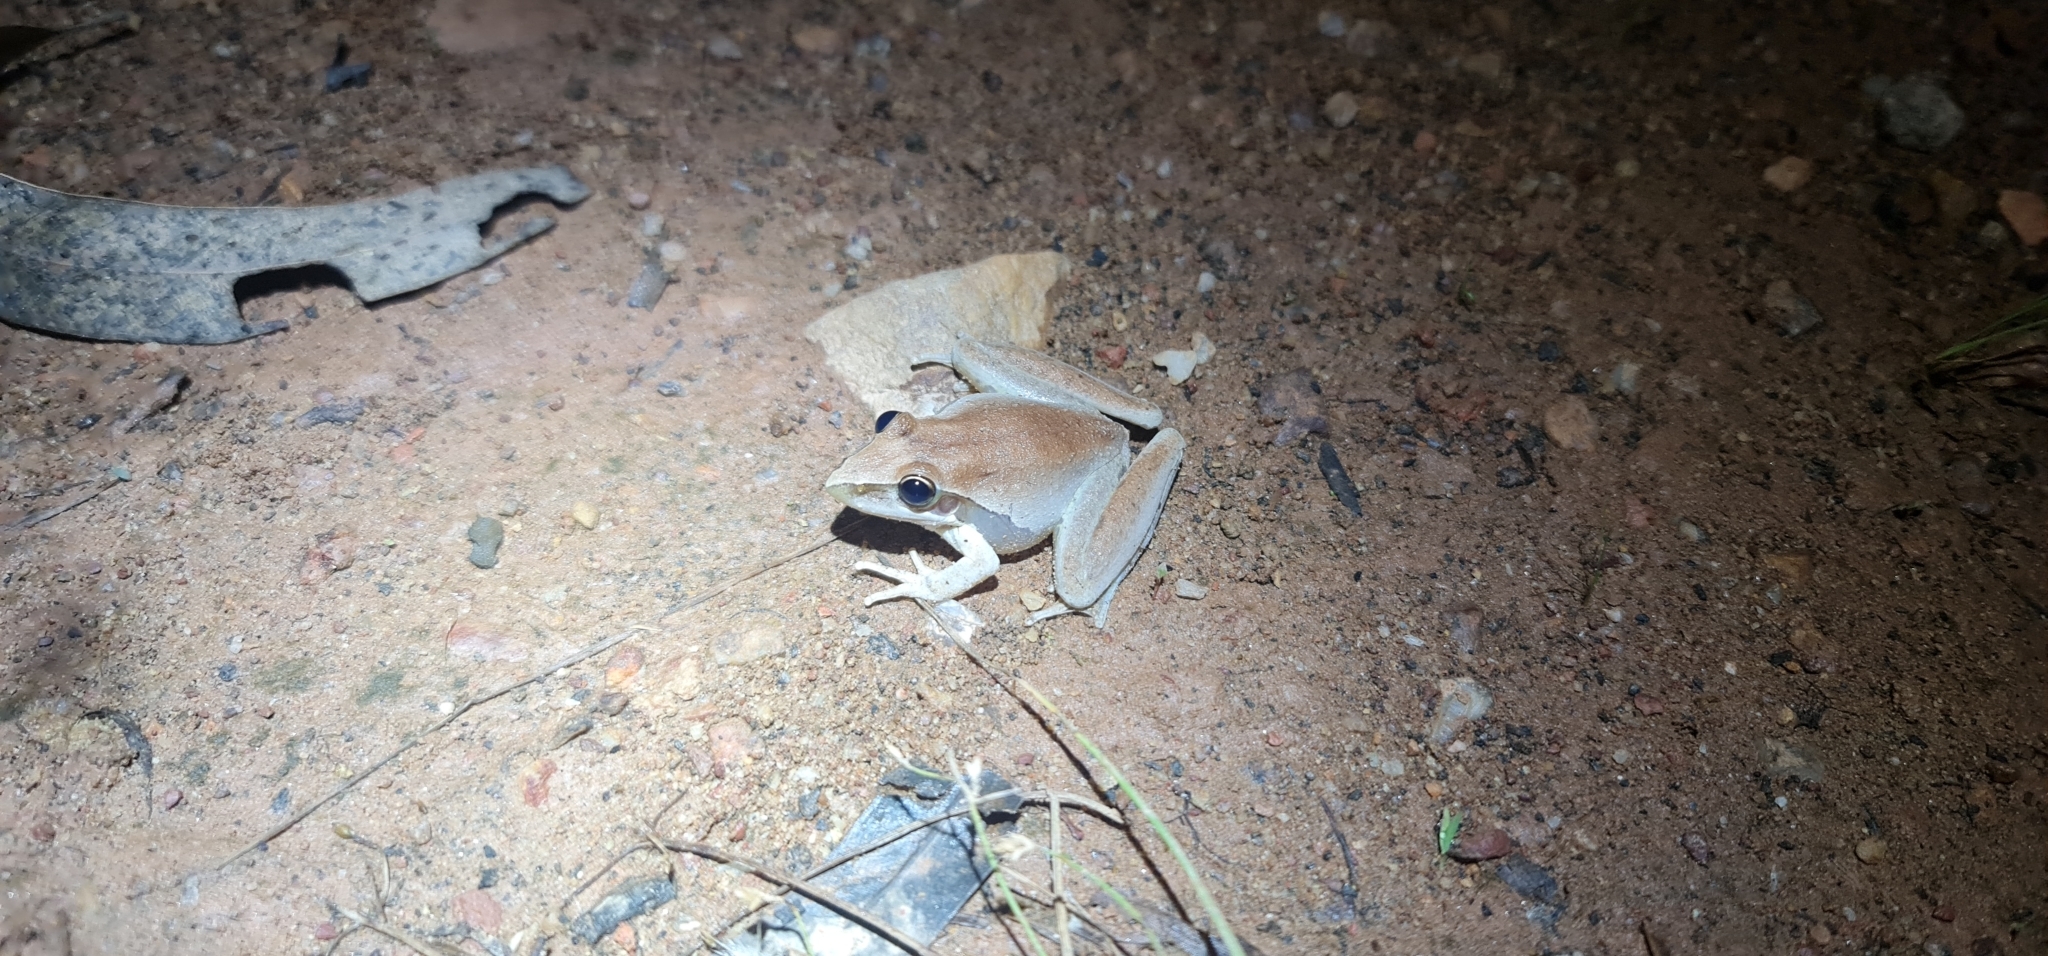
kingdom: Animalia
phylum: Chordata
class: Amphibia
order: Anura
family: Pelodryadidae
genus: Litoria
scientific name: Litoria watjulumensis
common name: Wotjulum frog
